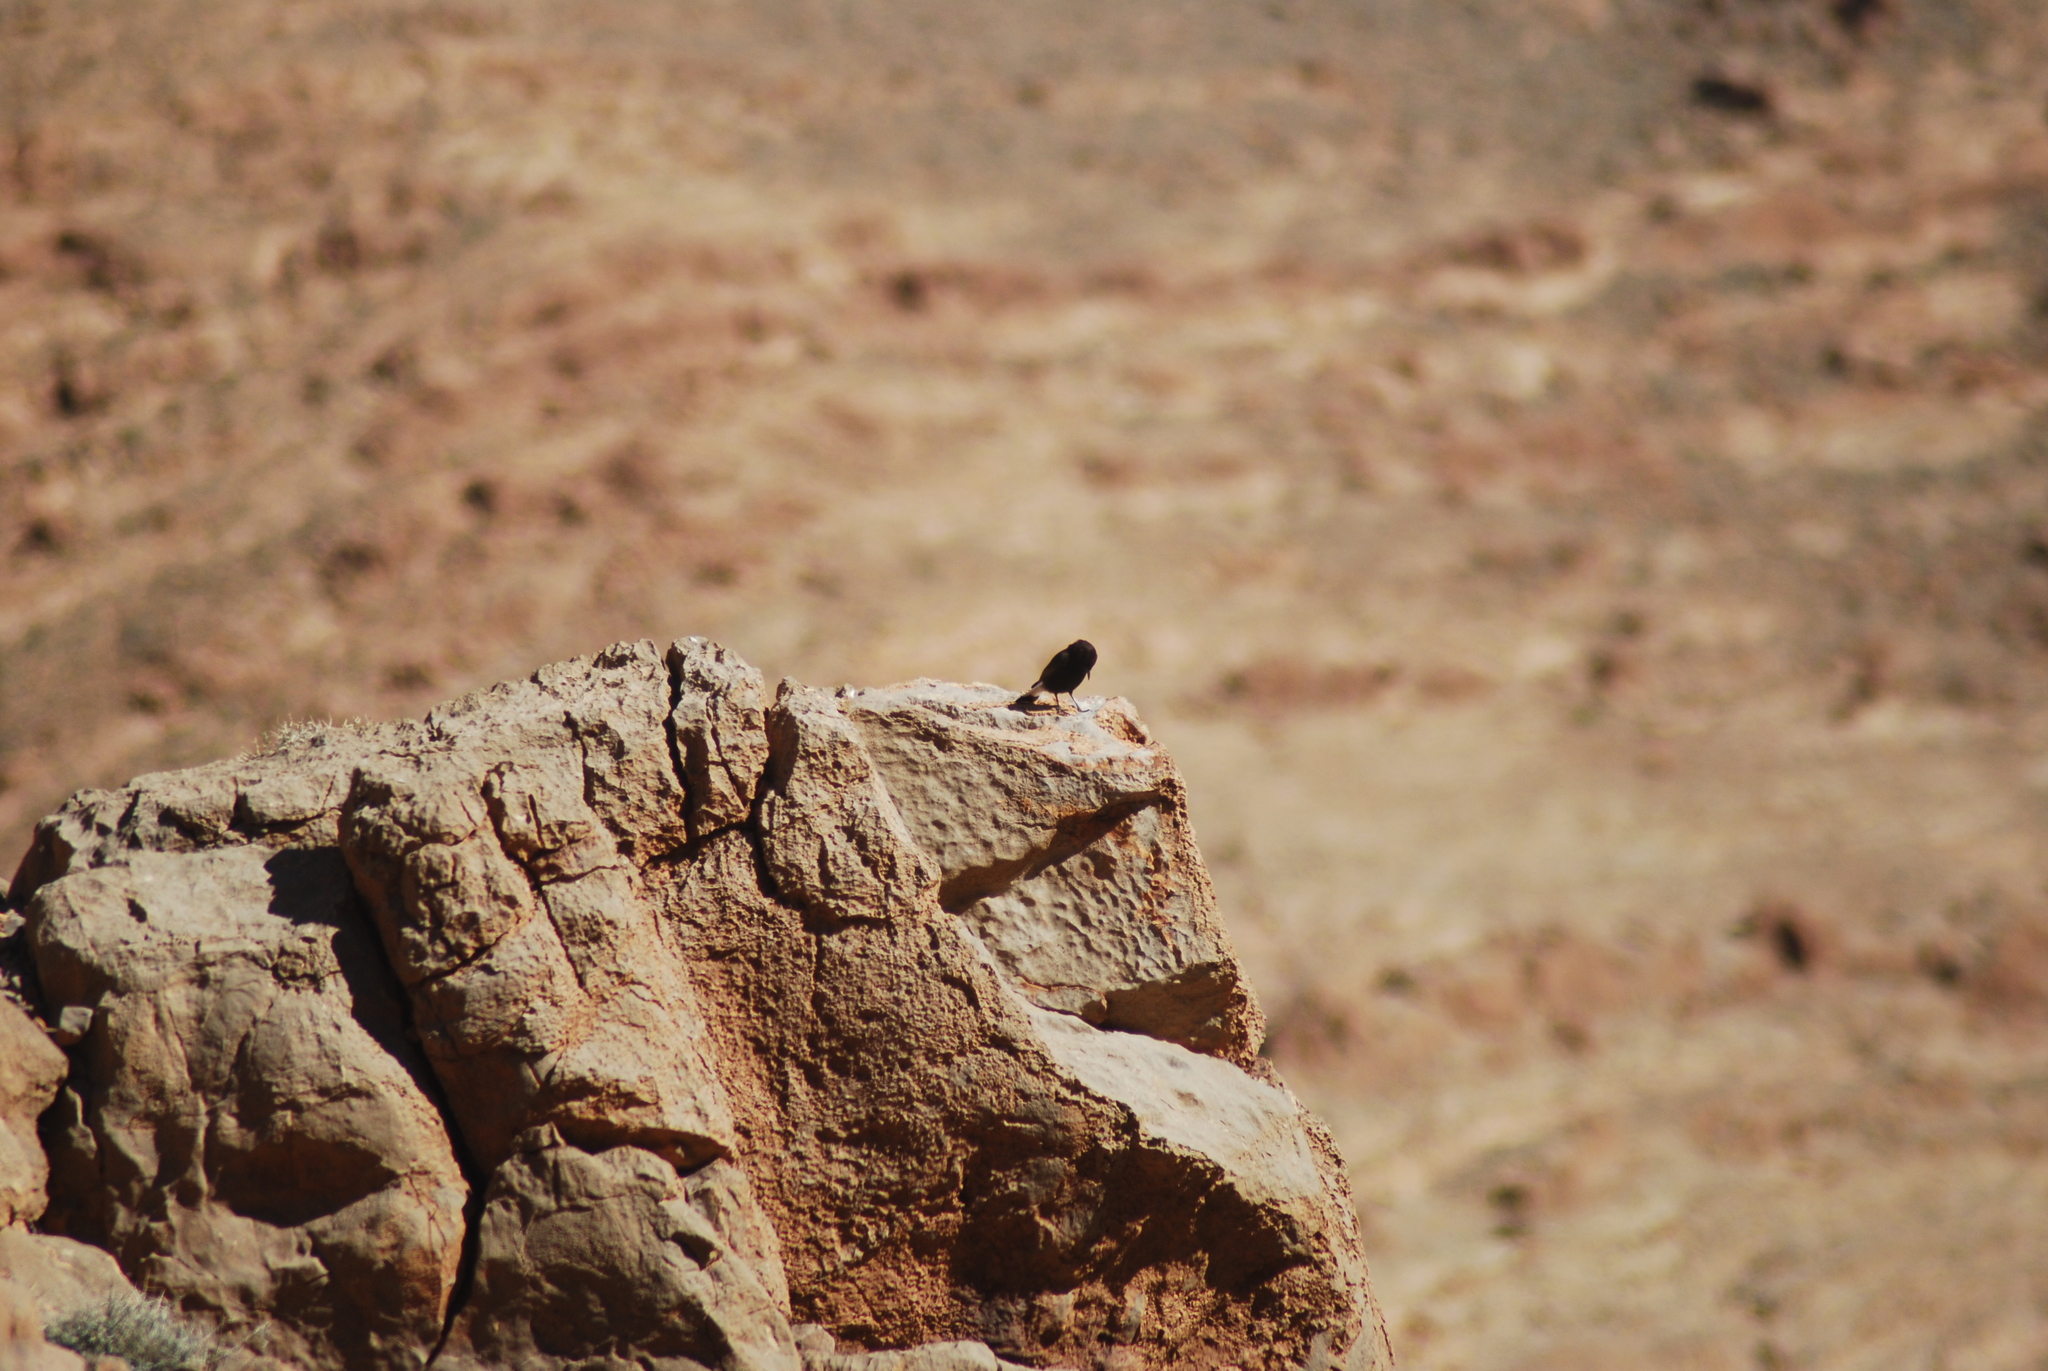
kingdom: Animalia
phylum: Chordata
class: Aves
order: Passeriformes
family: Muscicapidae
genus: Oenanthe
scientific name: Oenanthe leucura
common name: Black wheatear
